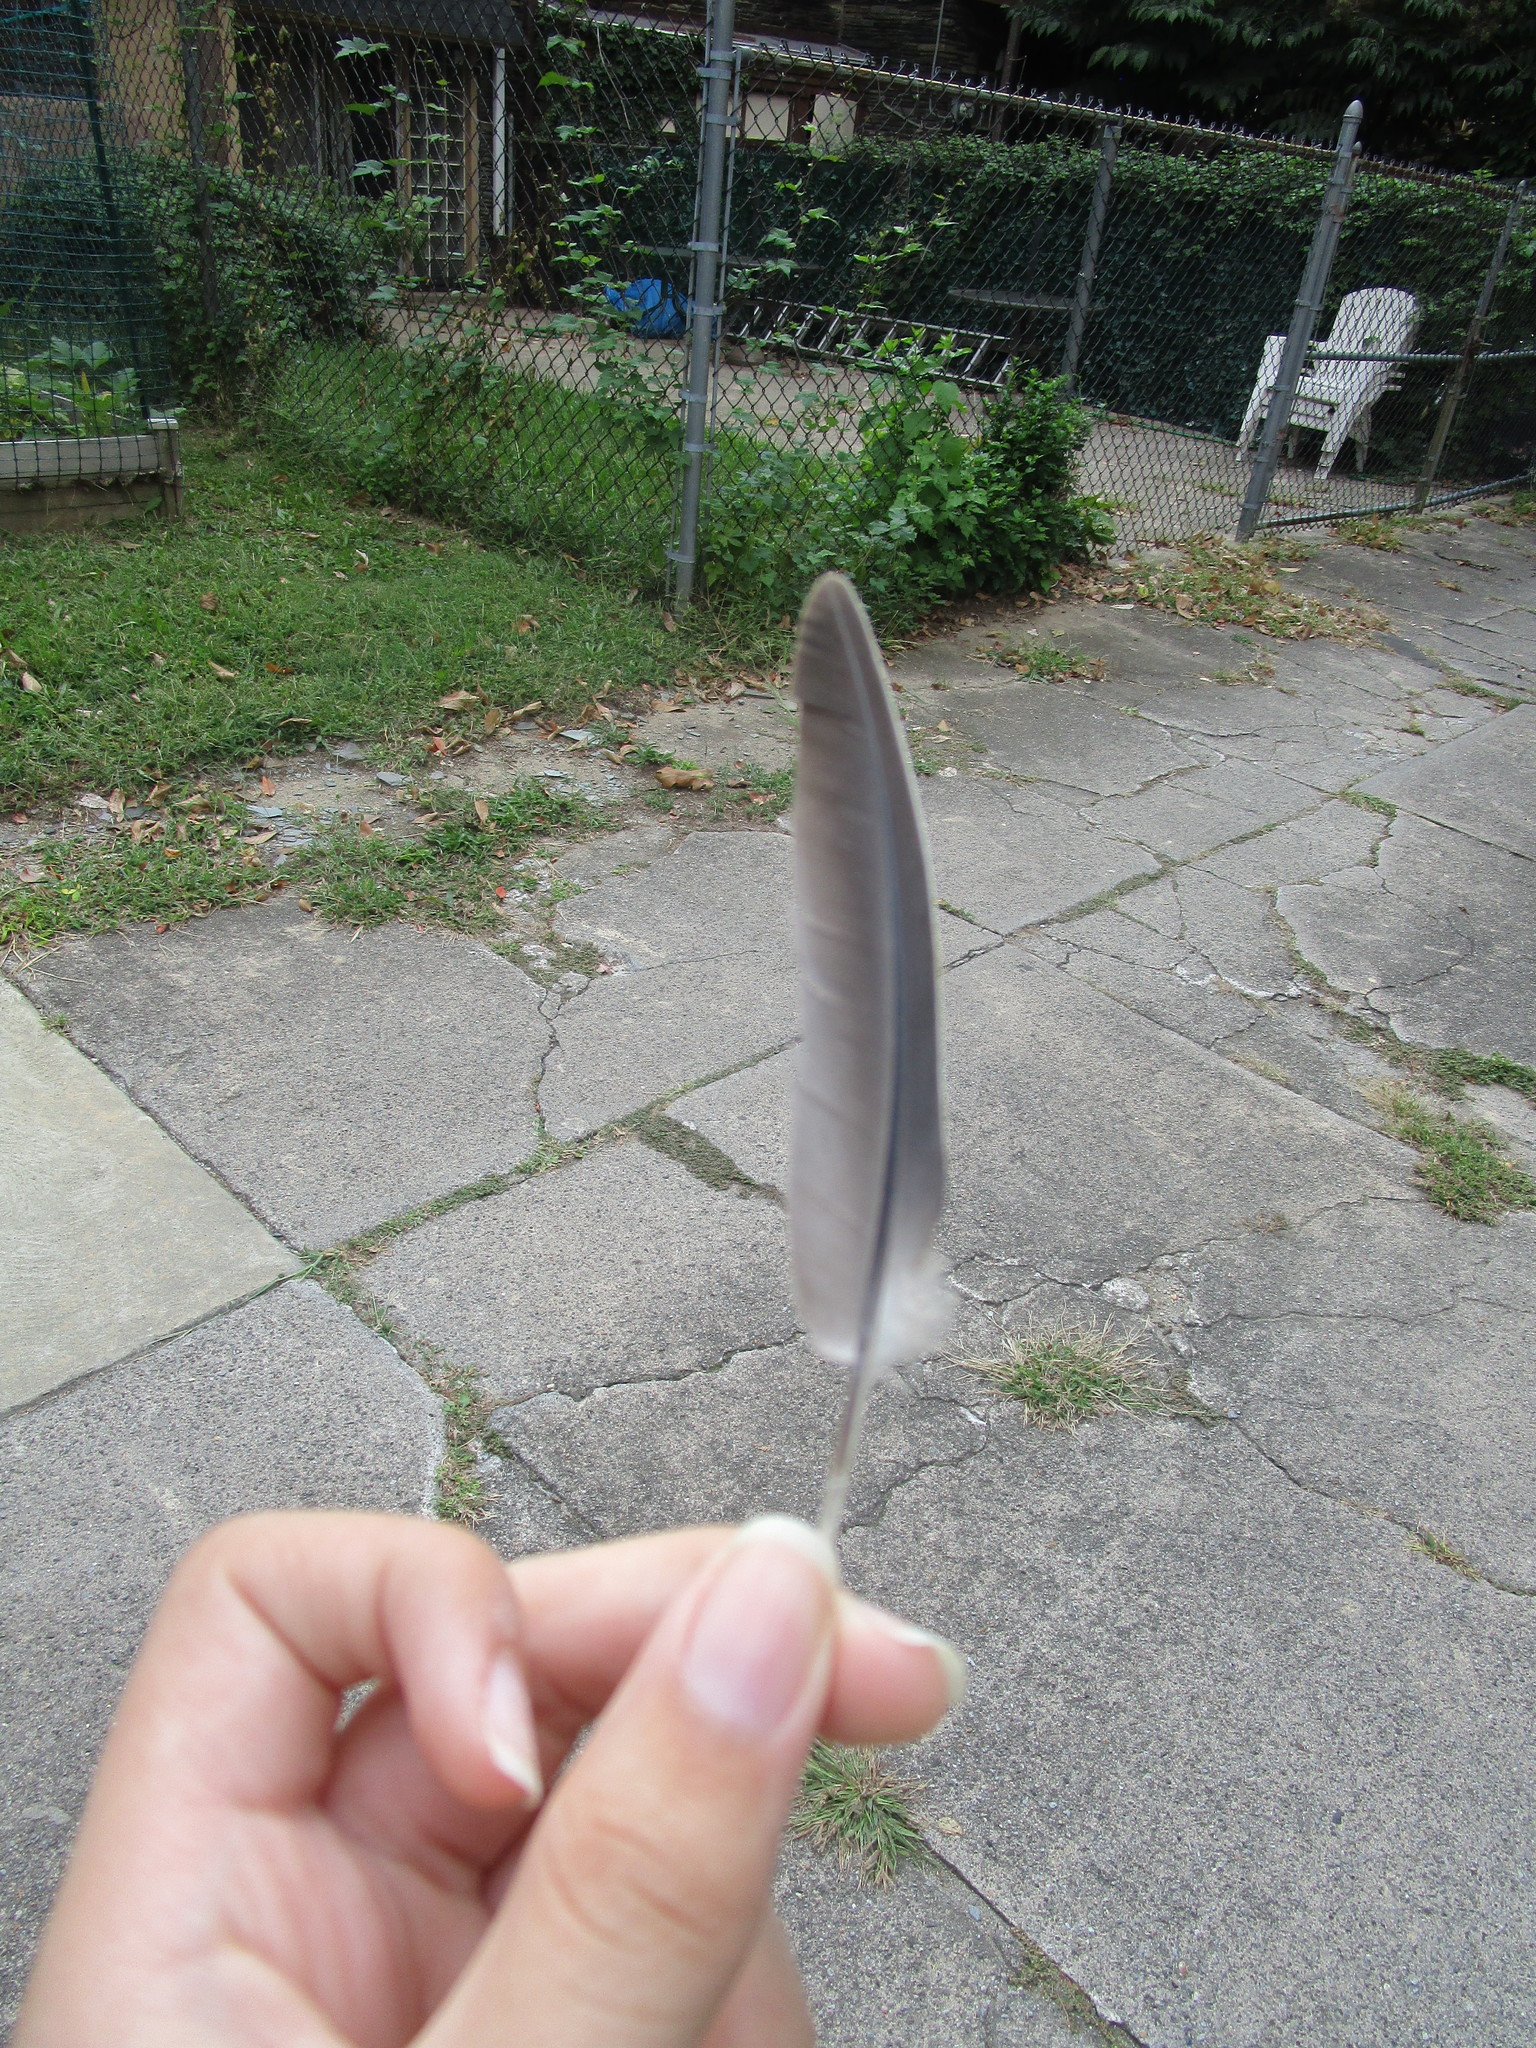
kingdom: Animalia
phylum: Chordata
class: Aves
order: Columbiformes
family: Columbidae
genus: Zenaida
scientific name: Zenaida macroura
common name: Mourning dove
